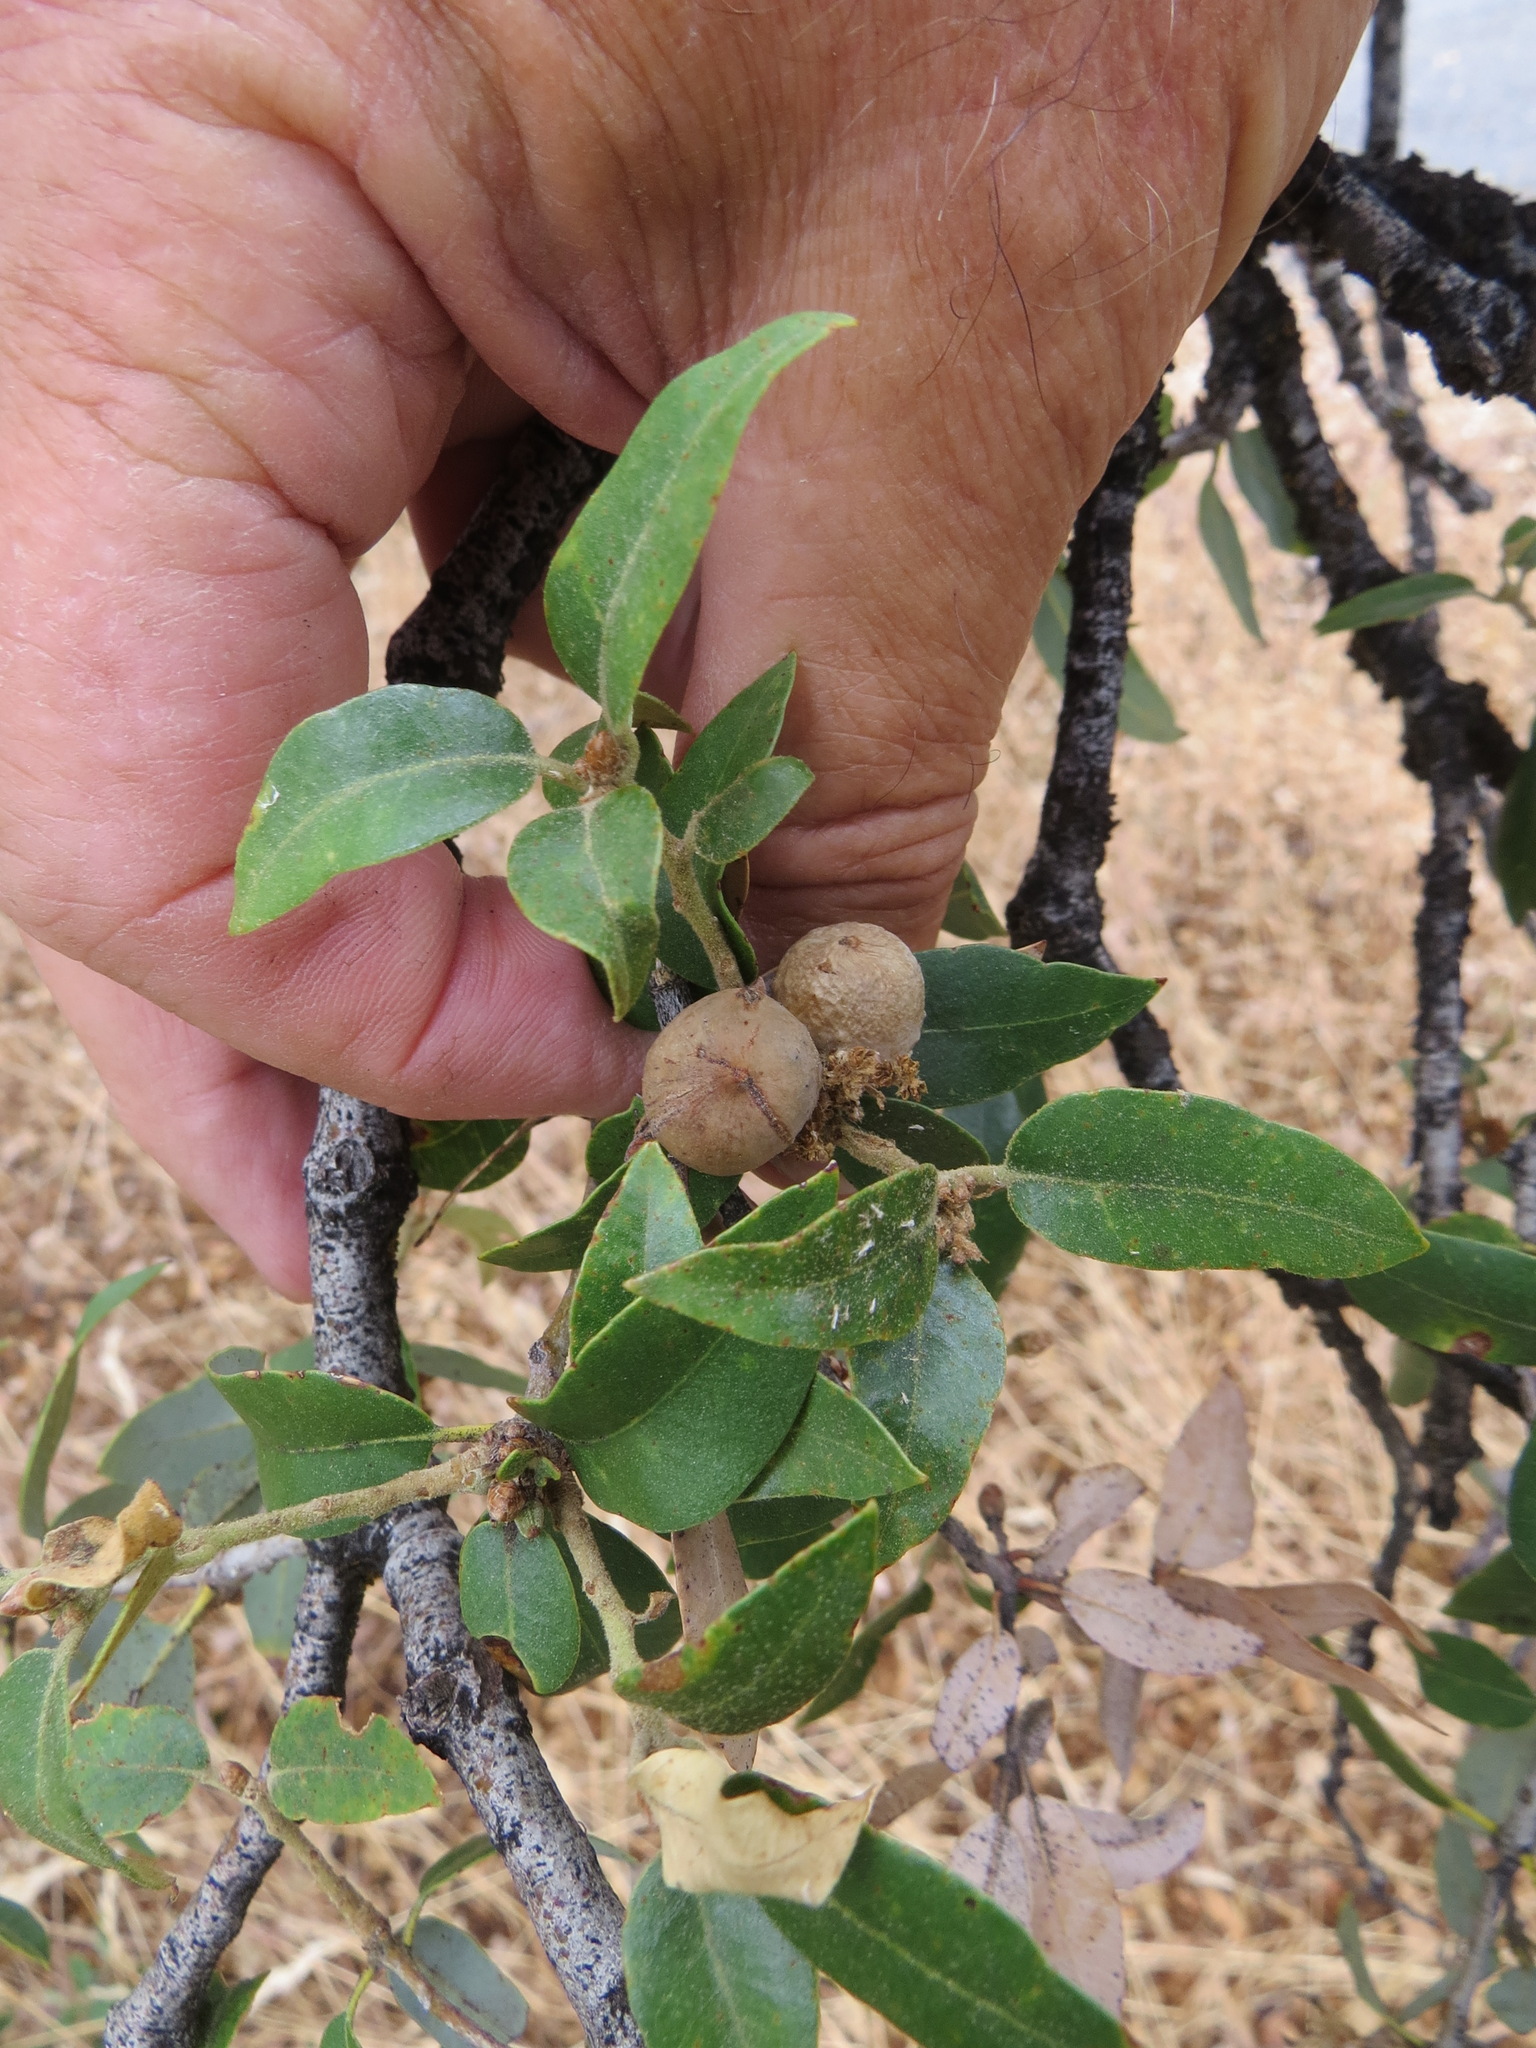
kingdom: Animalia
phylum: Arthropoda
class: Insecta
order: Hymenoptera
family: Cynipidae
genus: Heteroecus
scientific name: Heteroecus
